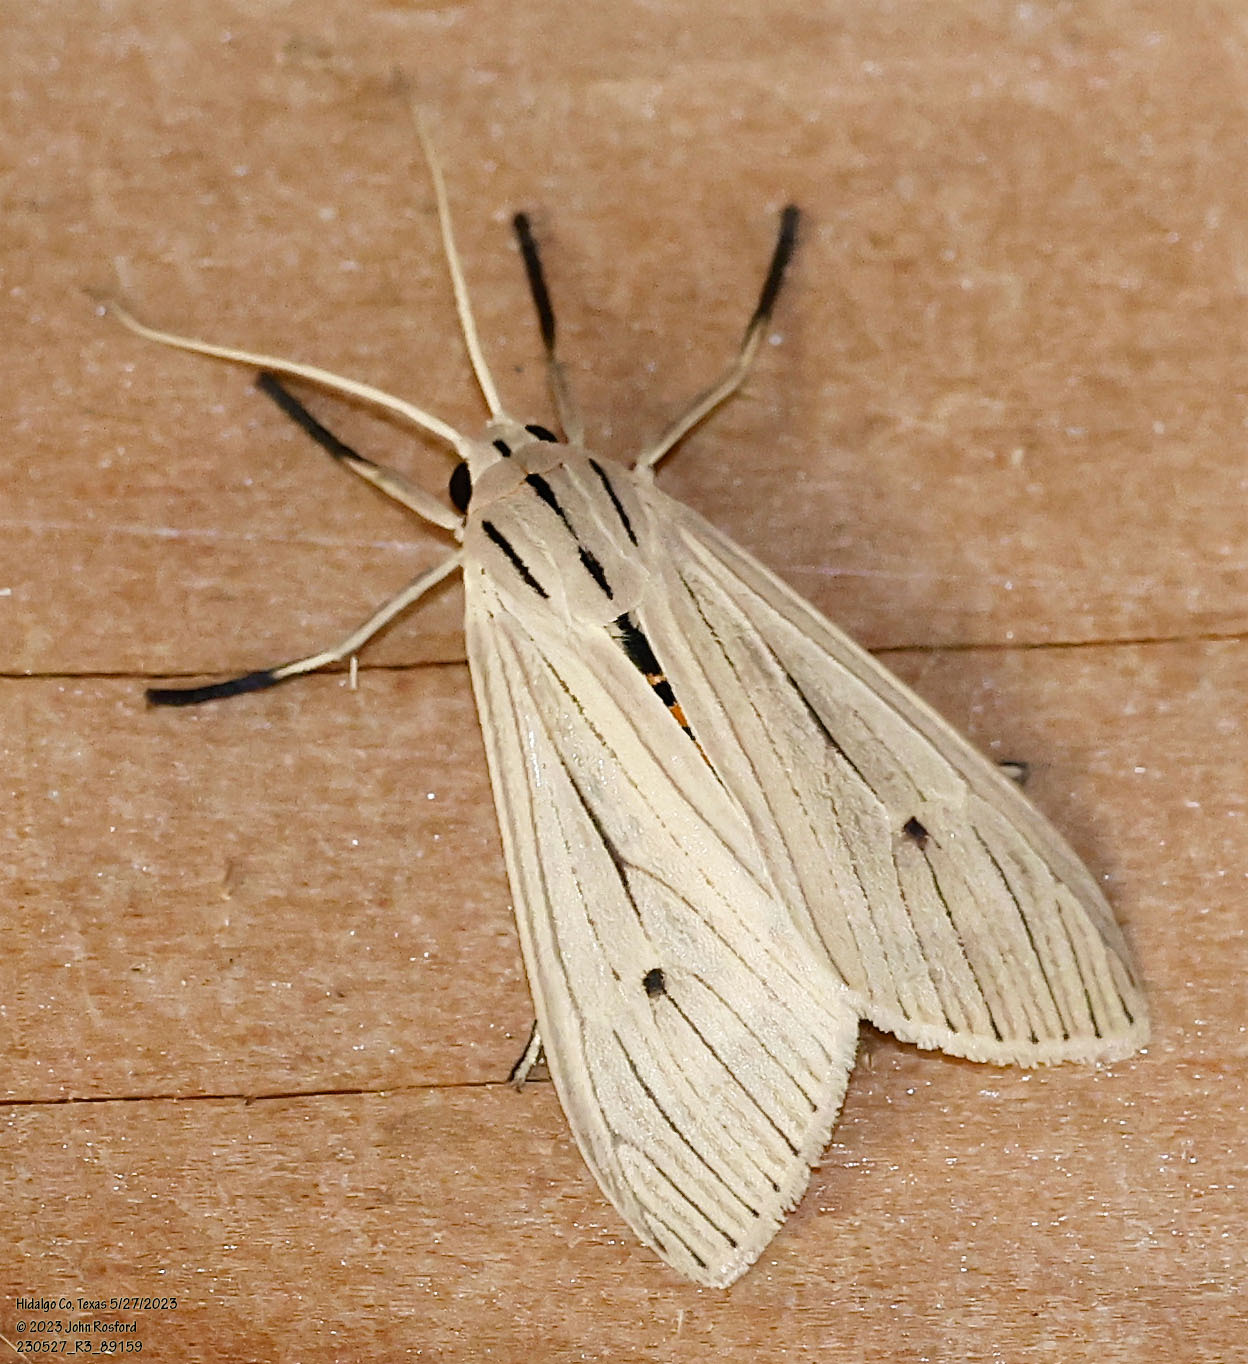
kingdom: Animalia
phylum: Arthropoda
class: Insecta
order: Lepidoptera
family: Erebidae
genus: Arctagyrta
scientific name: Arctagyrta Agaraea semivitrea
